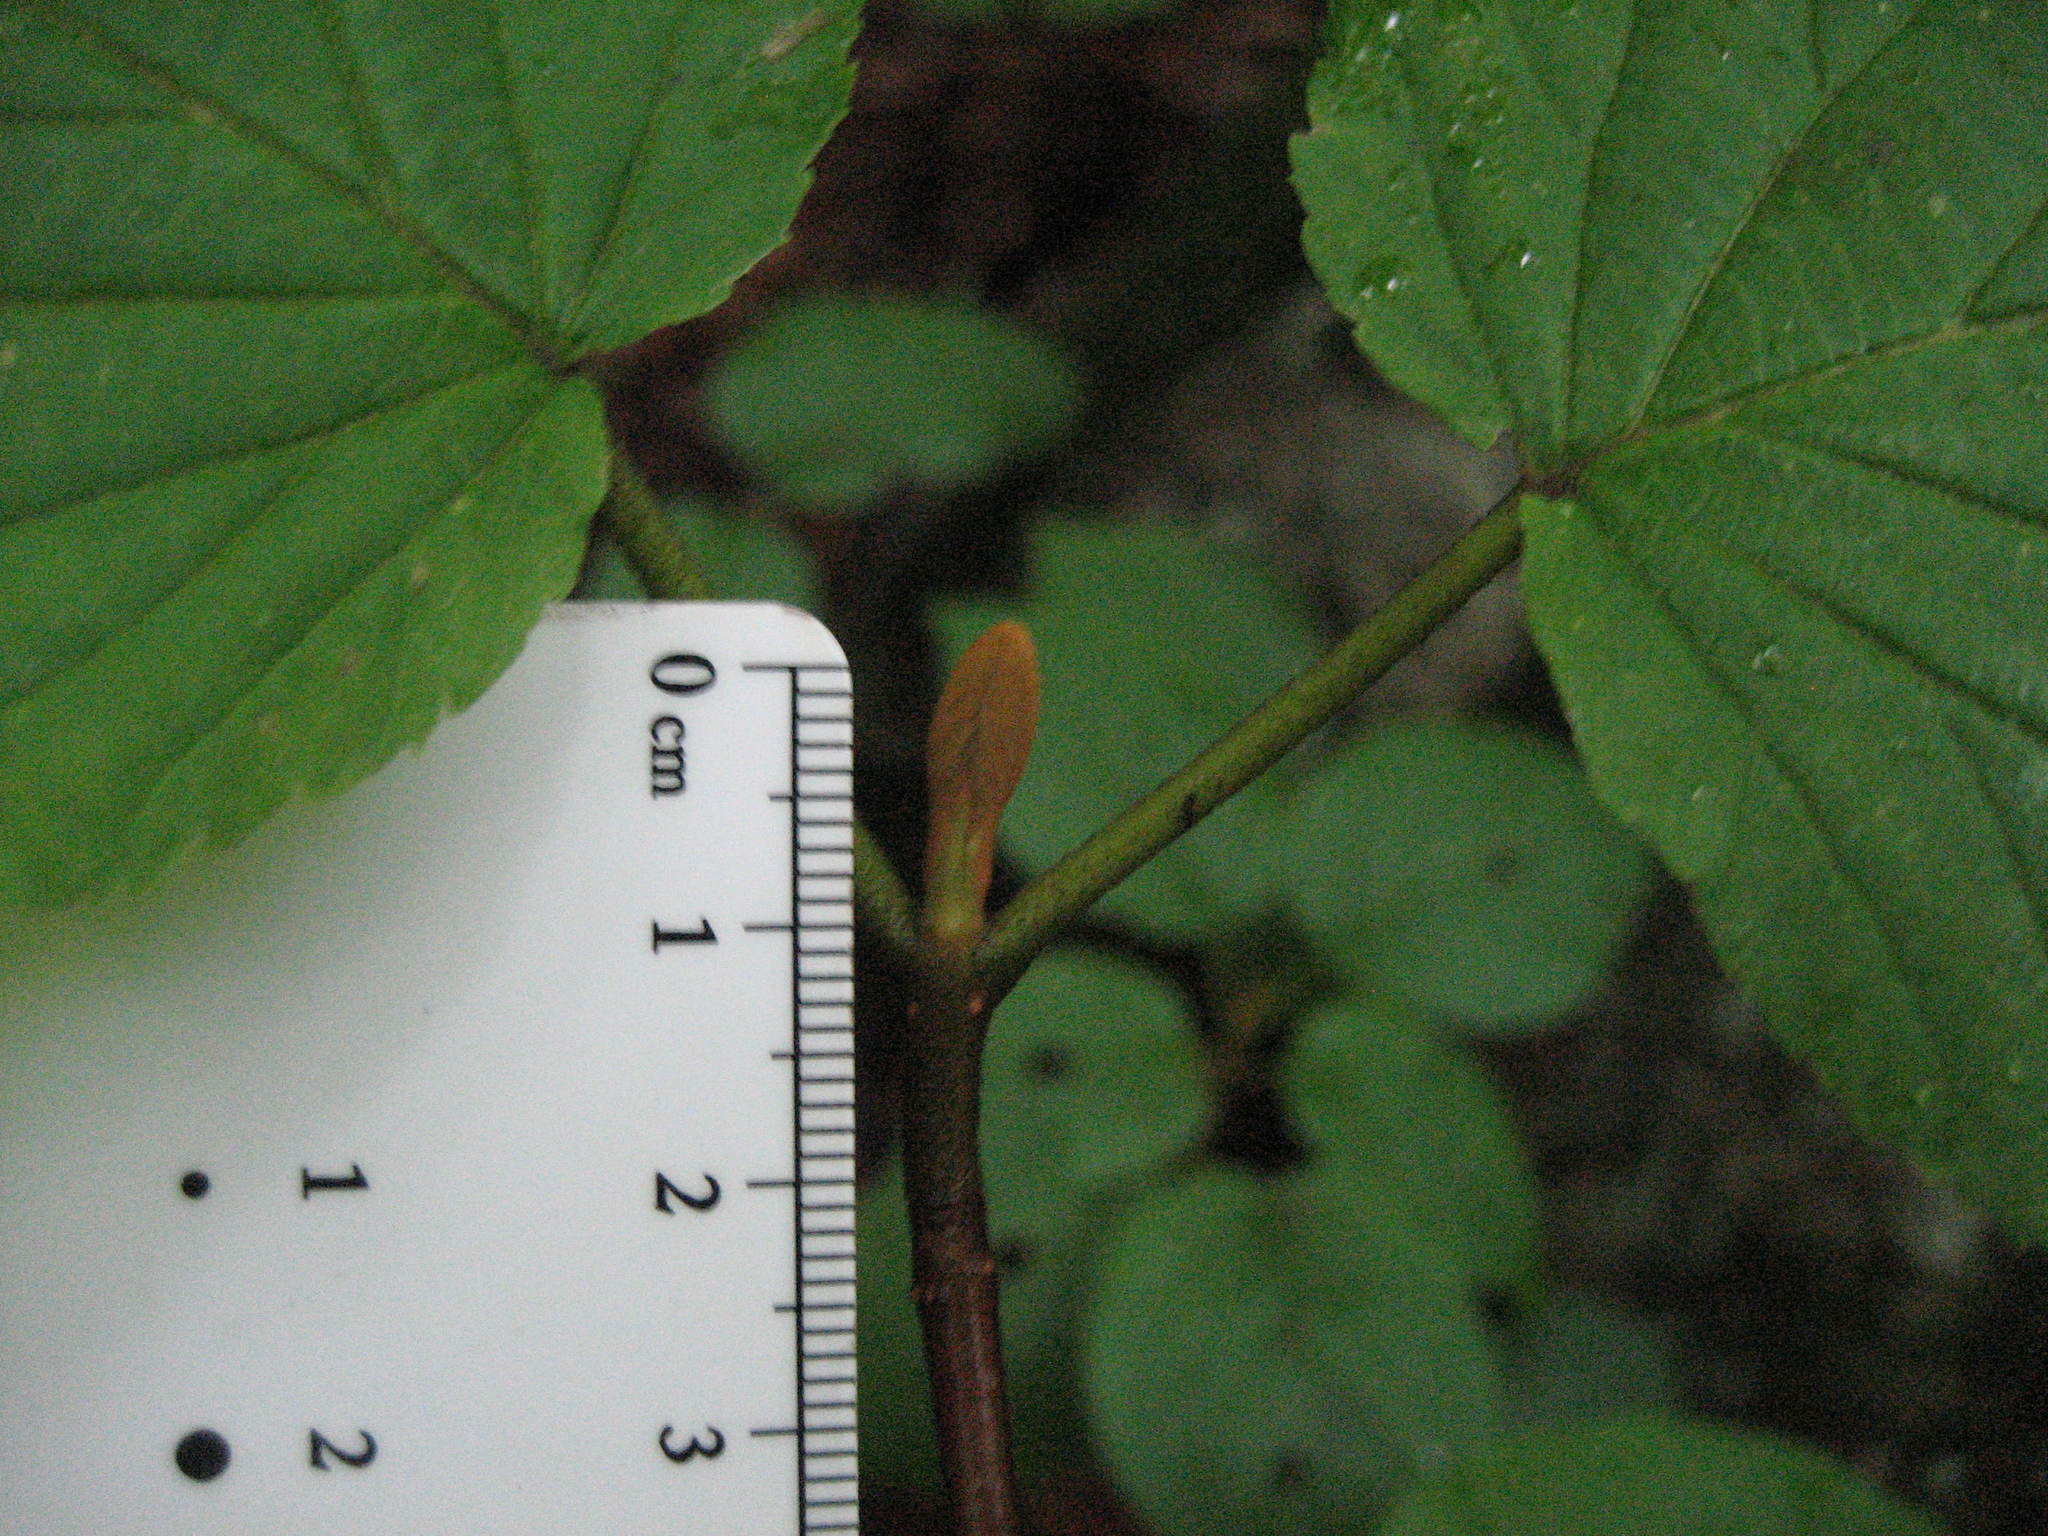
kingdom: Plantae
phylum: Tracheophyta
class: Magnoliopsida
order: Dipsacales
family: Viburnaceae
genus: Viburnum
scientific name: Viburnum lantanoides
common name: Hobblebush
